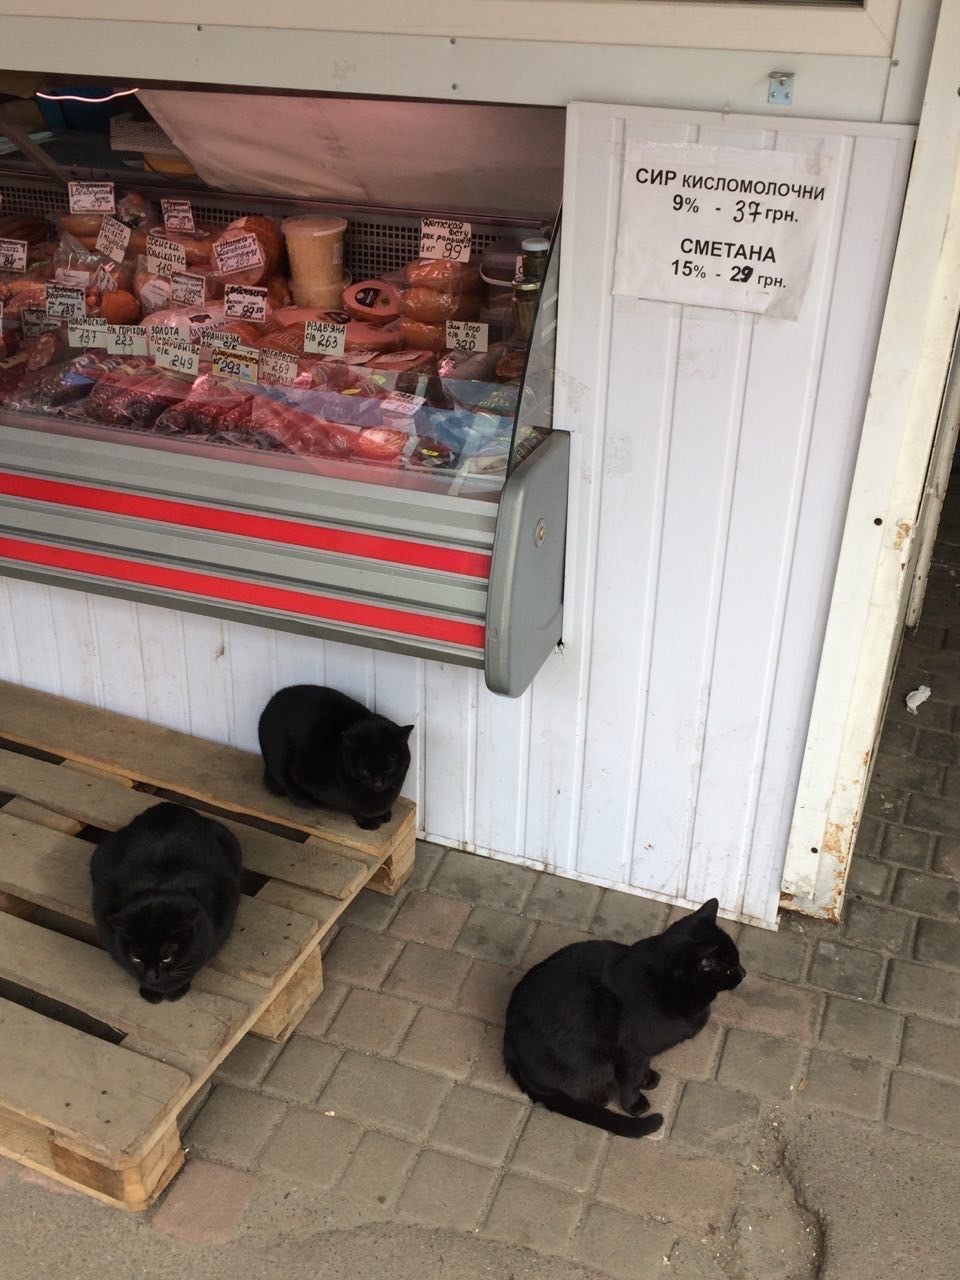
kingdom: Animalia
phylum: Chordata
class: Mammalia
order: Carnivora
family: Felidae
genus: Felis
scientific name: Felis catus
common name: Domestic cat
